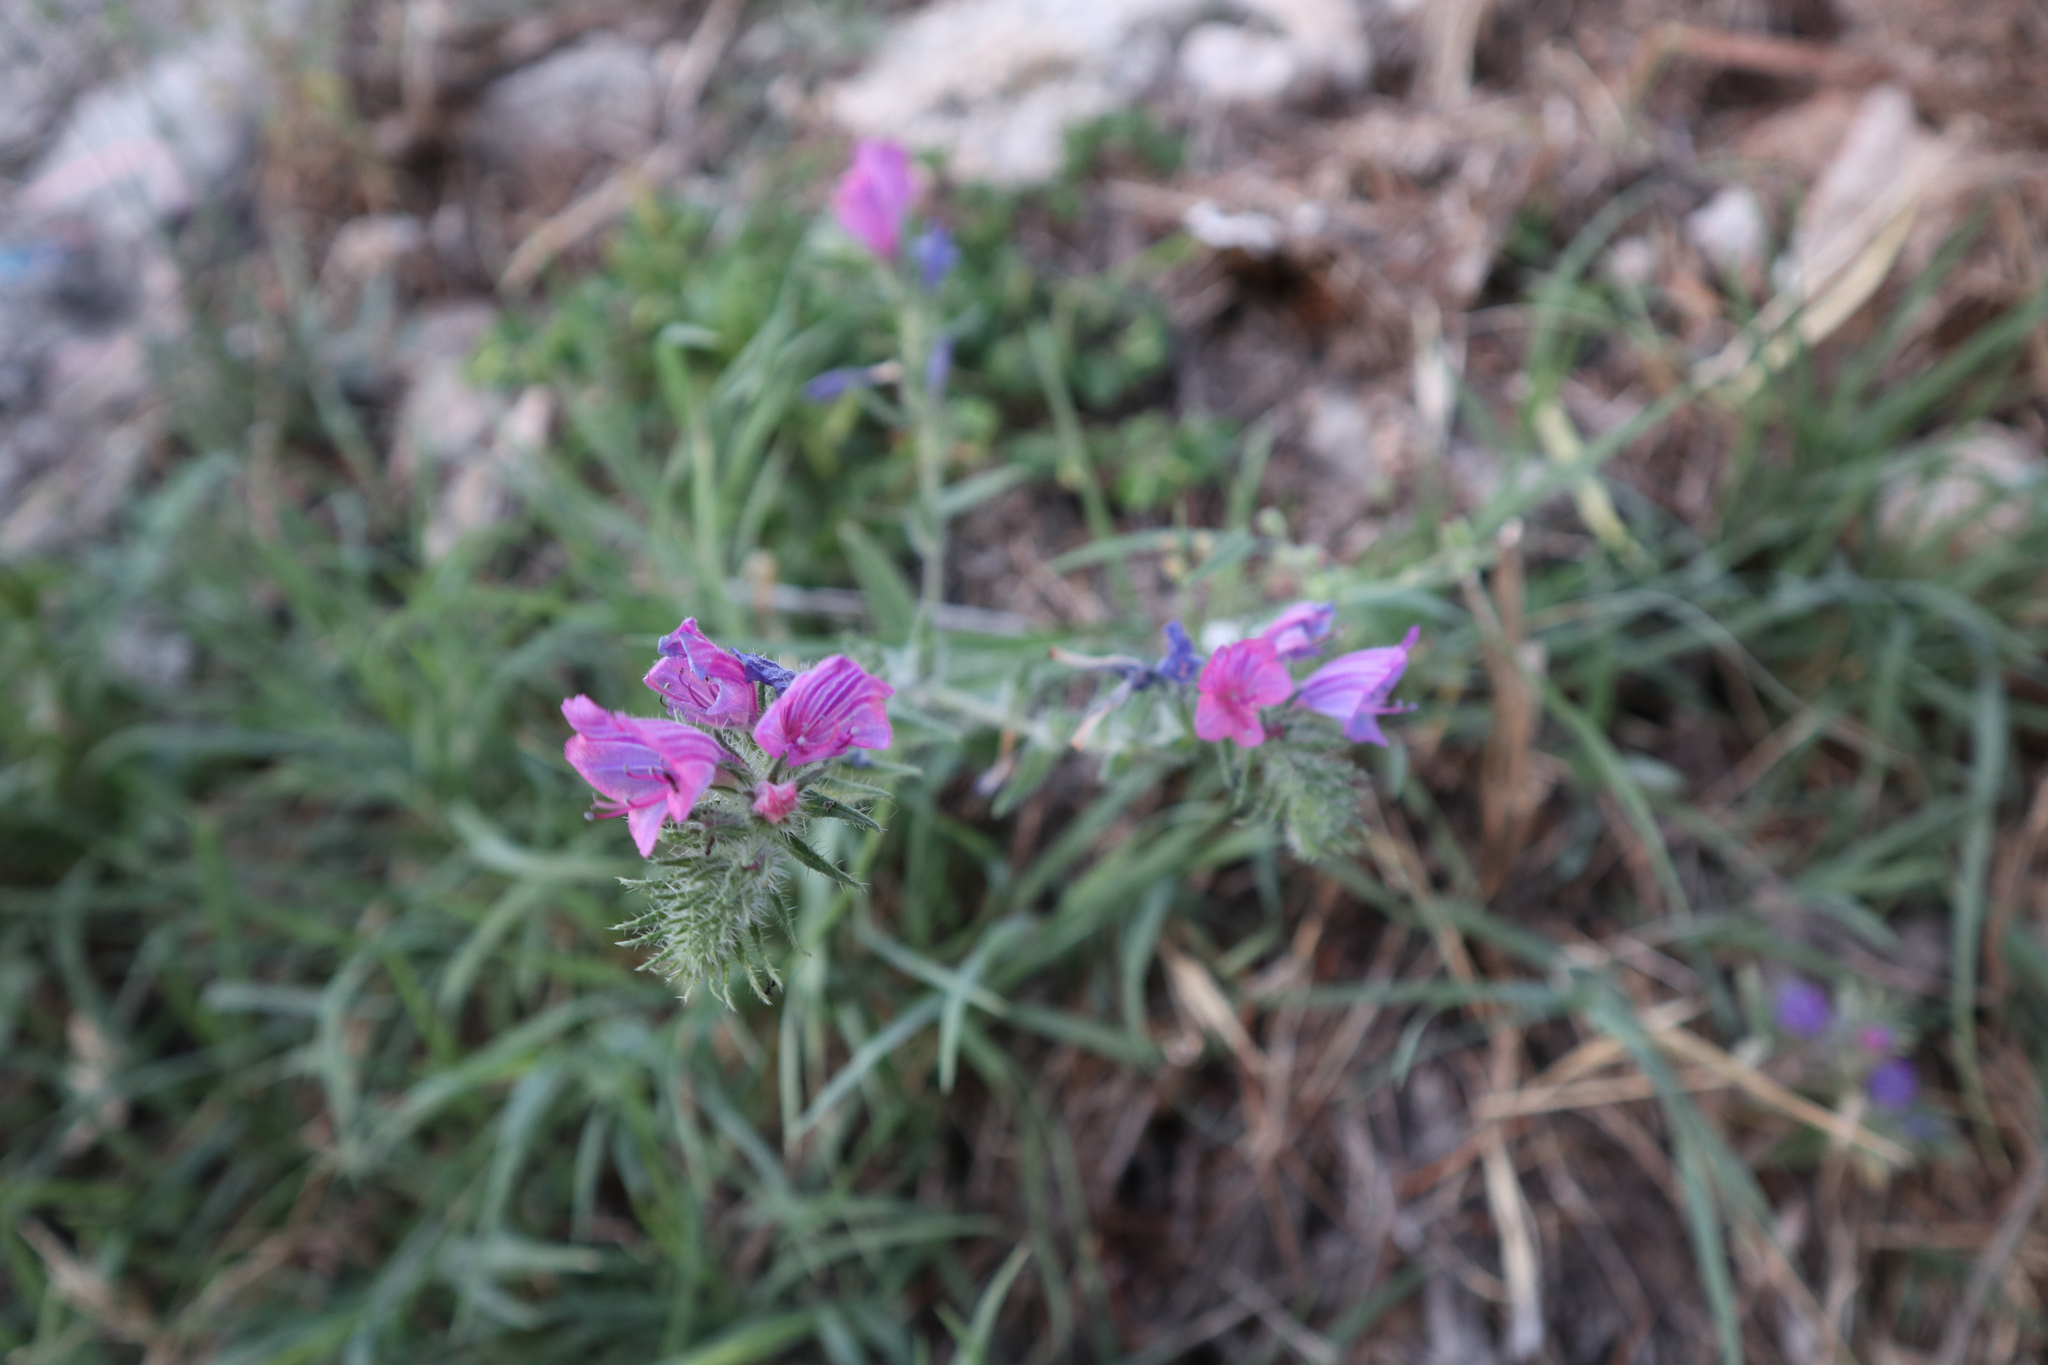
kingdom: Plantae
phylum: Tracheophyta
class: Magnoliopsida
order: Boraginales
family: Boraginaceae
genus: Echium
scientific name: Echium vulgare
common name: Common viper's bugloss
